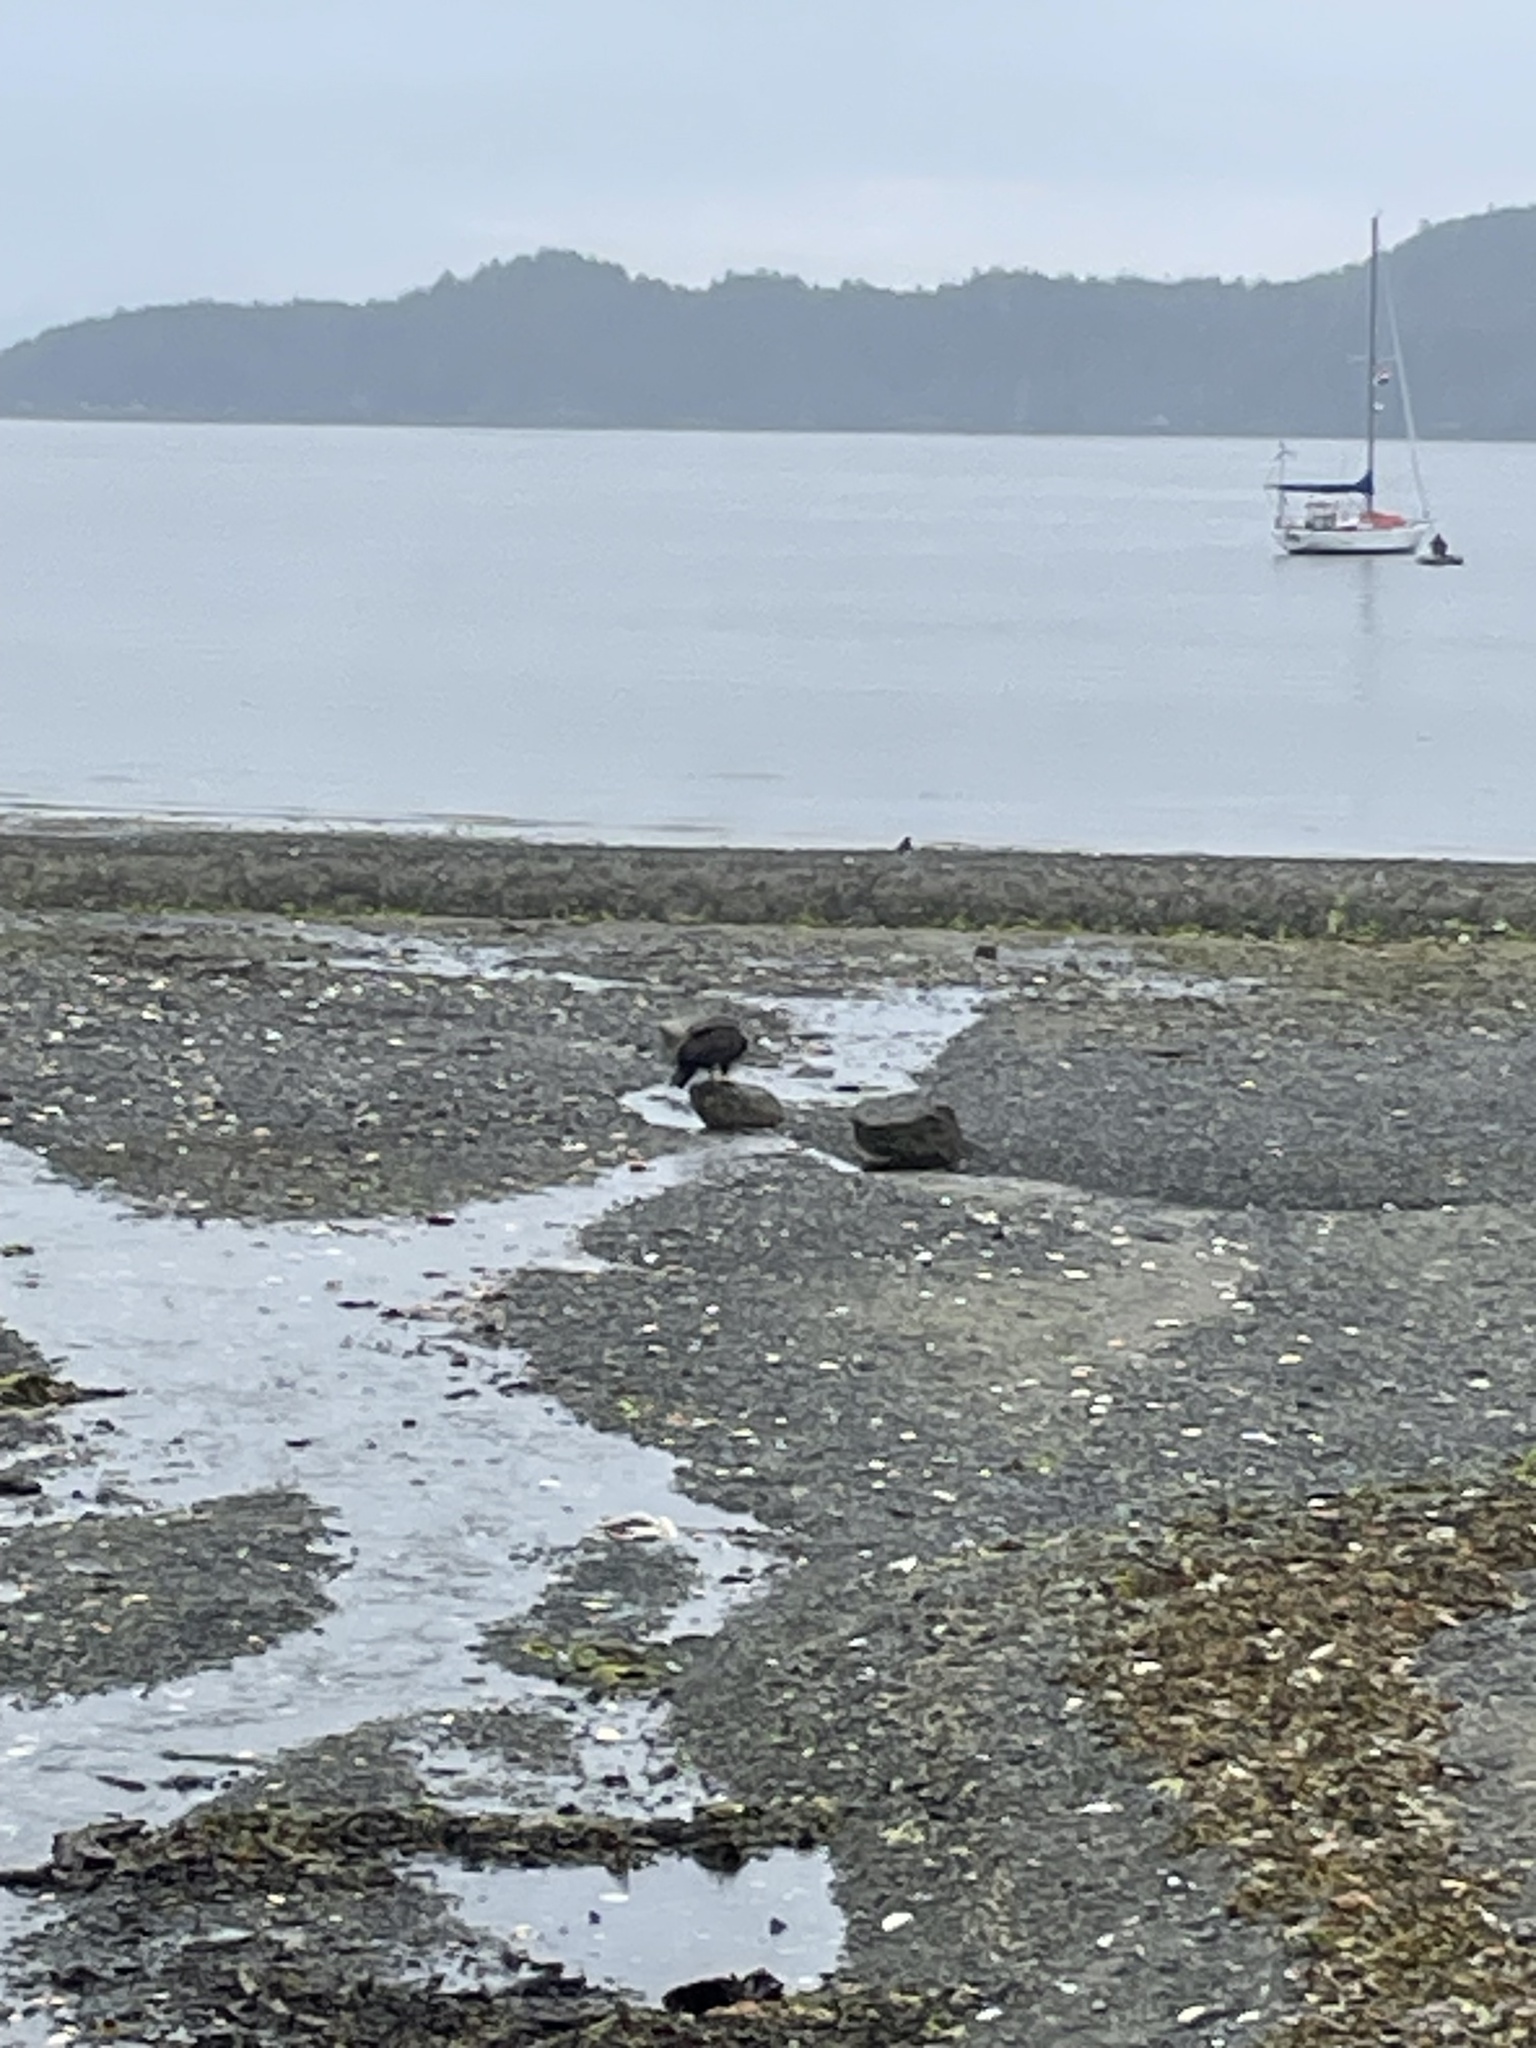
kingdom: Animalia
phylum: Chordata
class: Aves
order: Accipitriformes
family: Accipitridae
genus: Haliaeetus
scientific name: Haliaeetus leucocephalus
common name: Bald eagle
